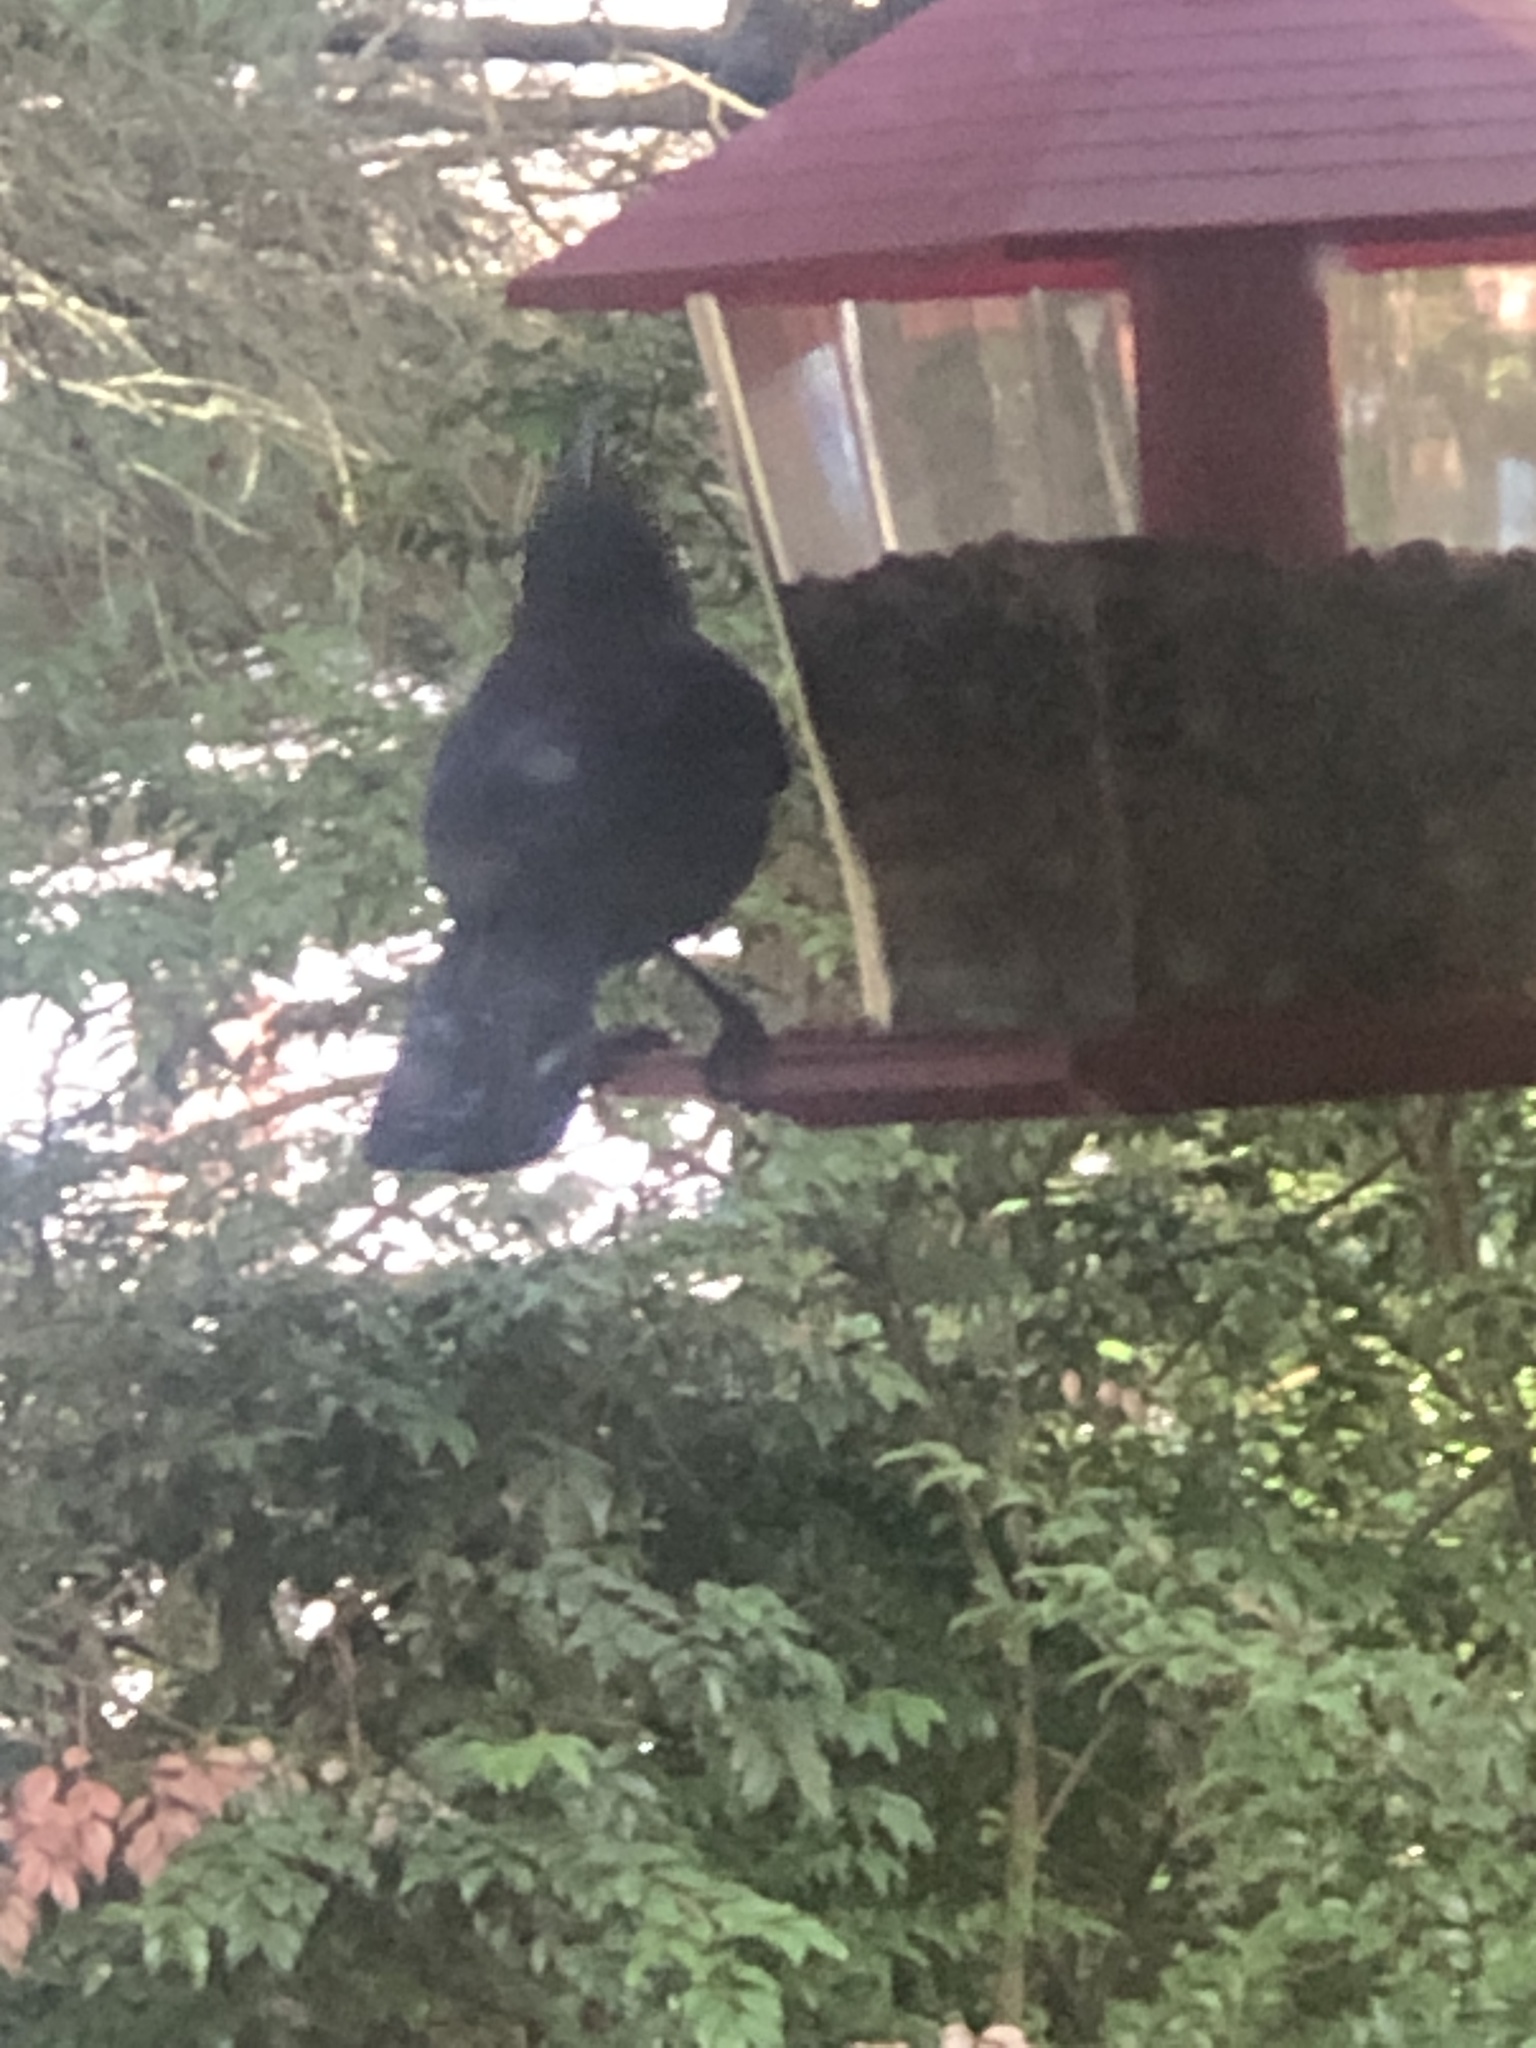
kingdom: Animalia
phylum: Chordata
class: Aves
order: Passeriformes
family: Corvidae
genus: Cyanocitta
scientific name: Cyanocitta stelleri
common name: Steller's jay
